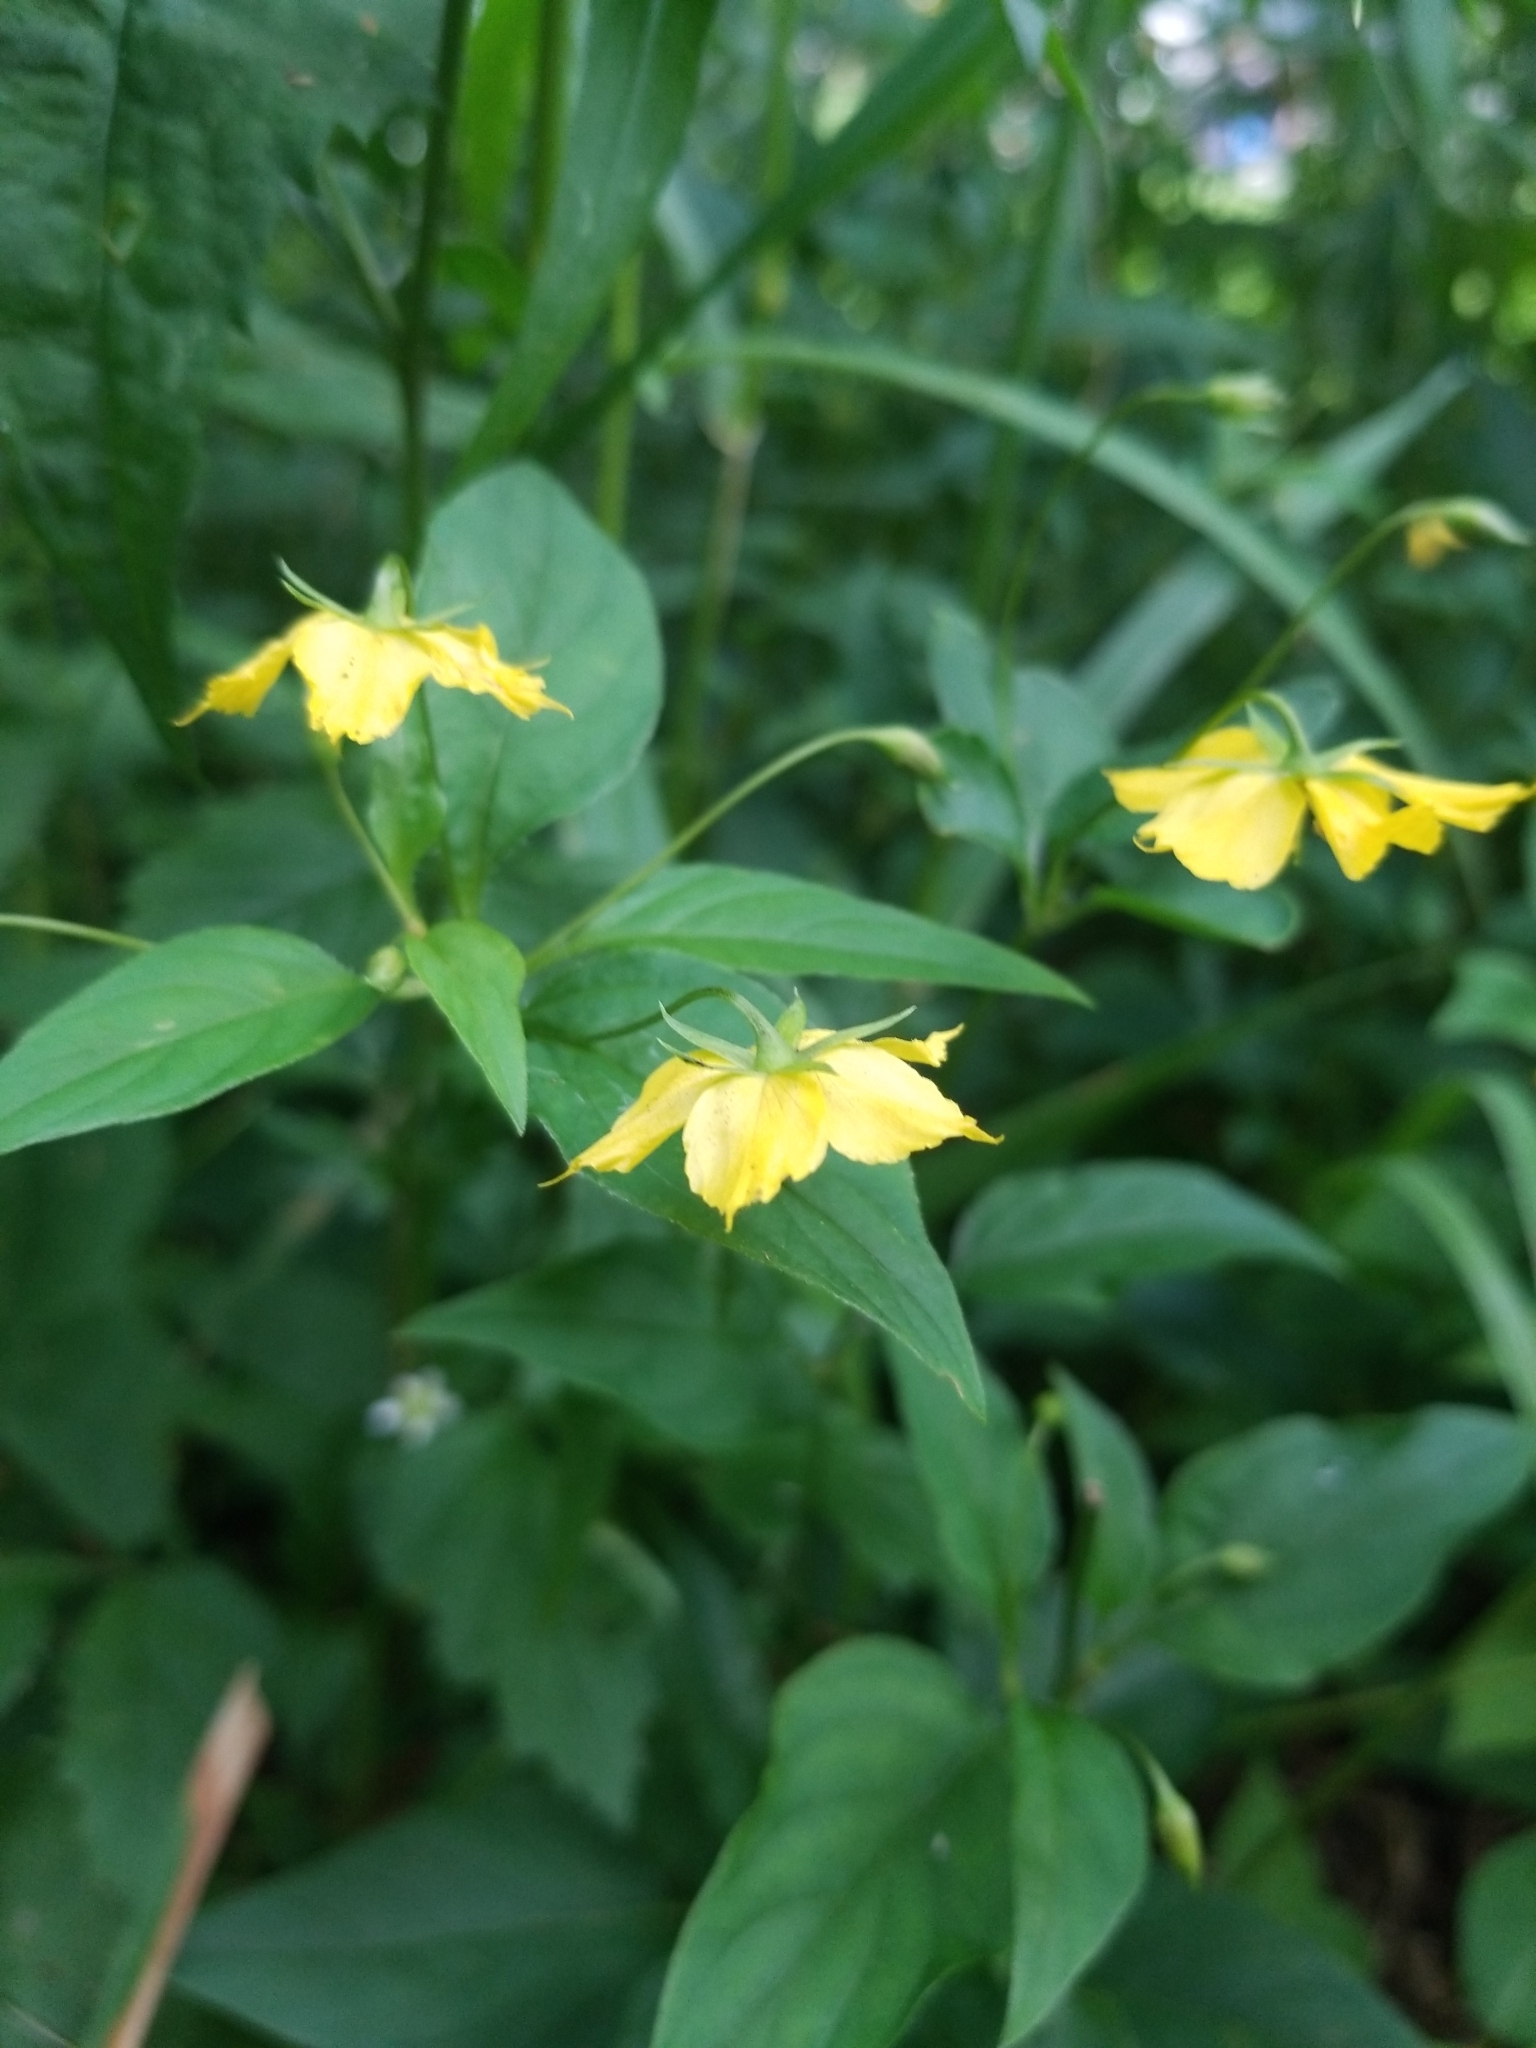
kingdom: Plantae
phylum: Tracheophyta
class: Magnoliopsida
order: Ericales
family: Primulaceae
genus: Lysimachia
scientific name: Lysimachia ciliata
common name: Fringed loosestrife
